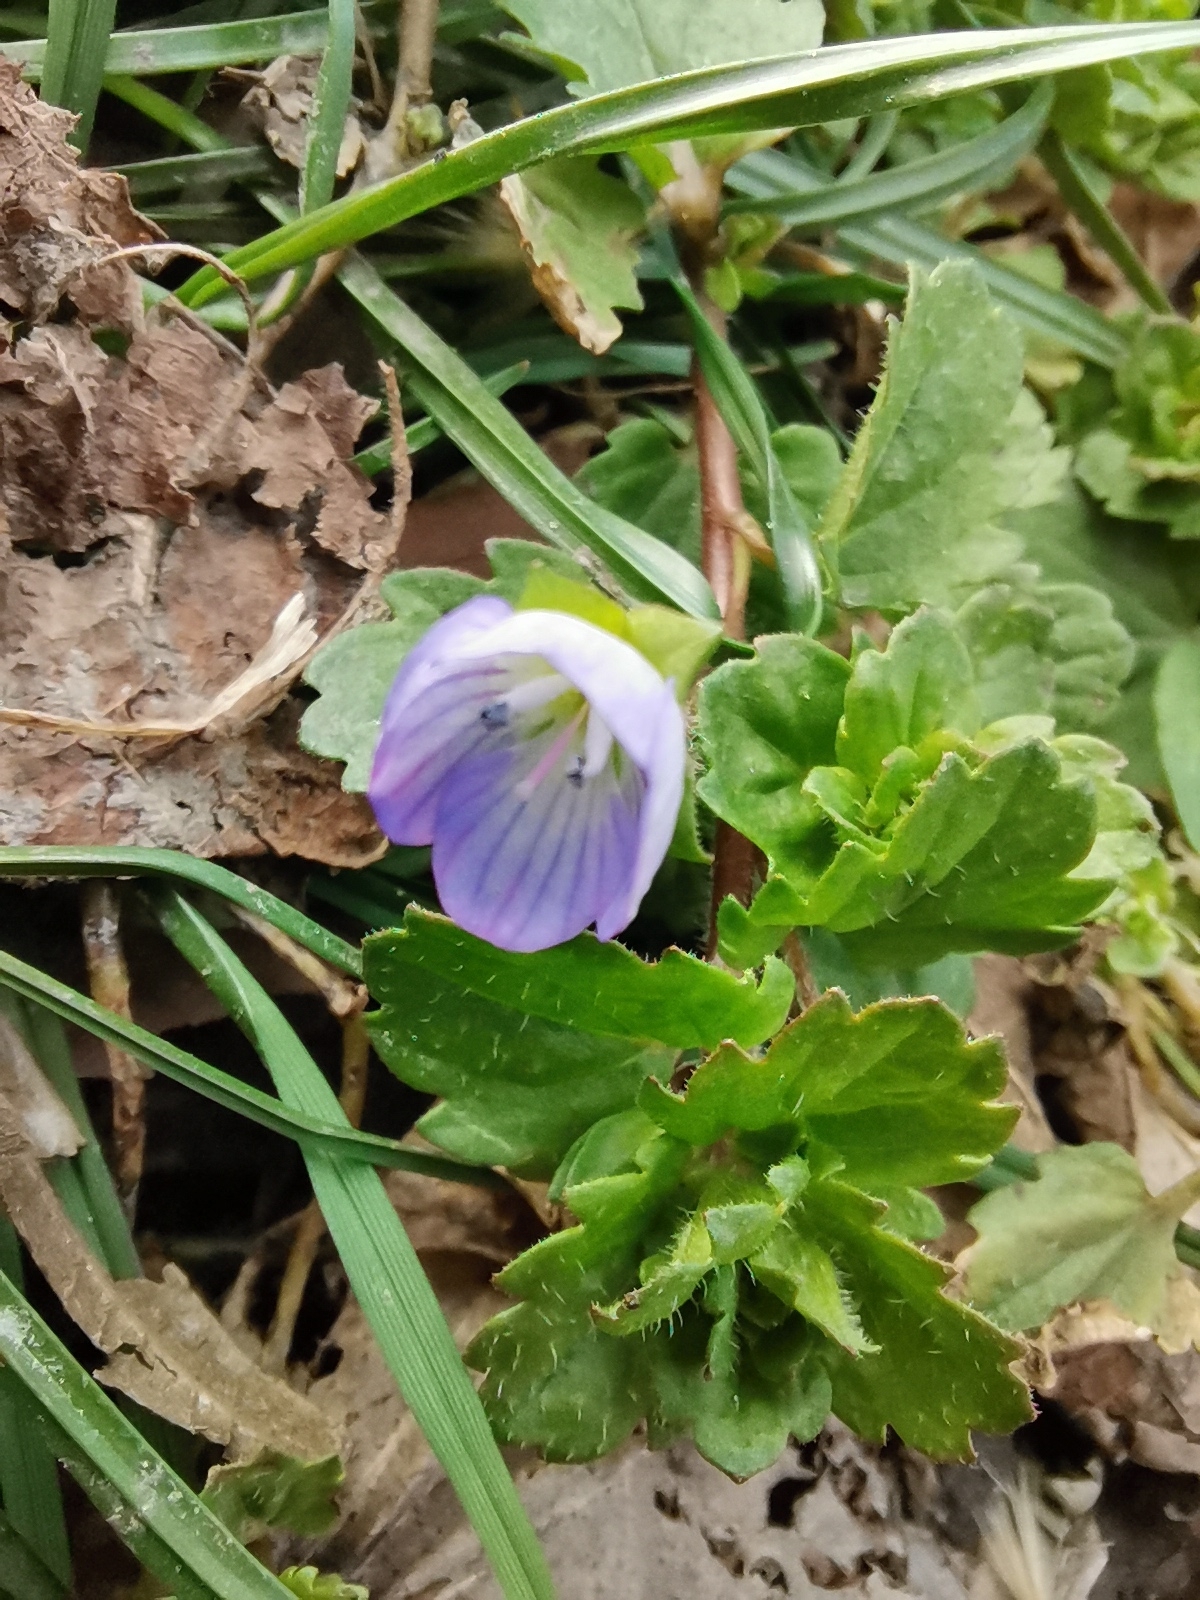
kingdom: Plantae
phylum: Tracheophyta
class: Magnoliopsida
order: Lamiales
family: Plantaginaceae
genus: Veronica
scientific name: Veronica persica
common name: Common field-speedwell
